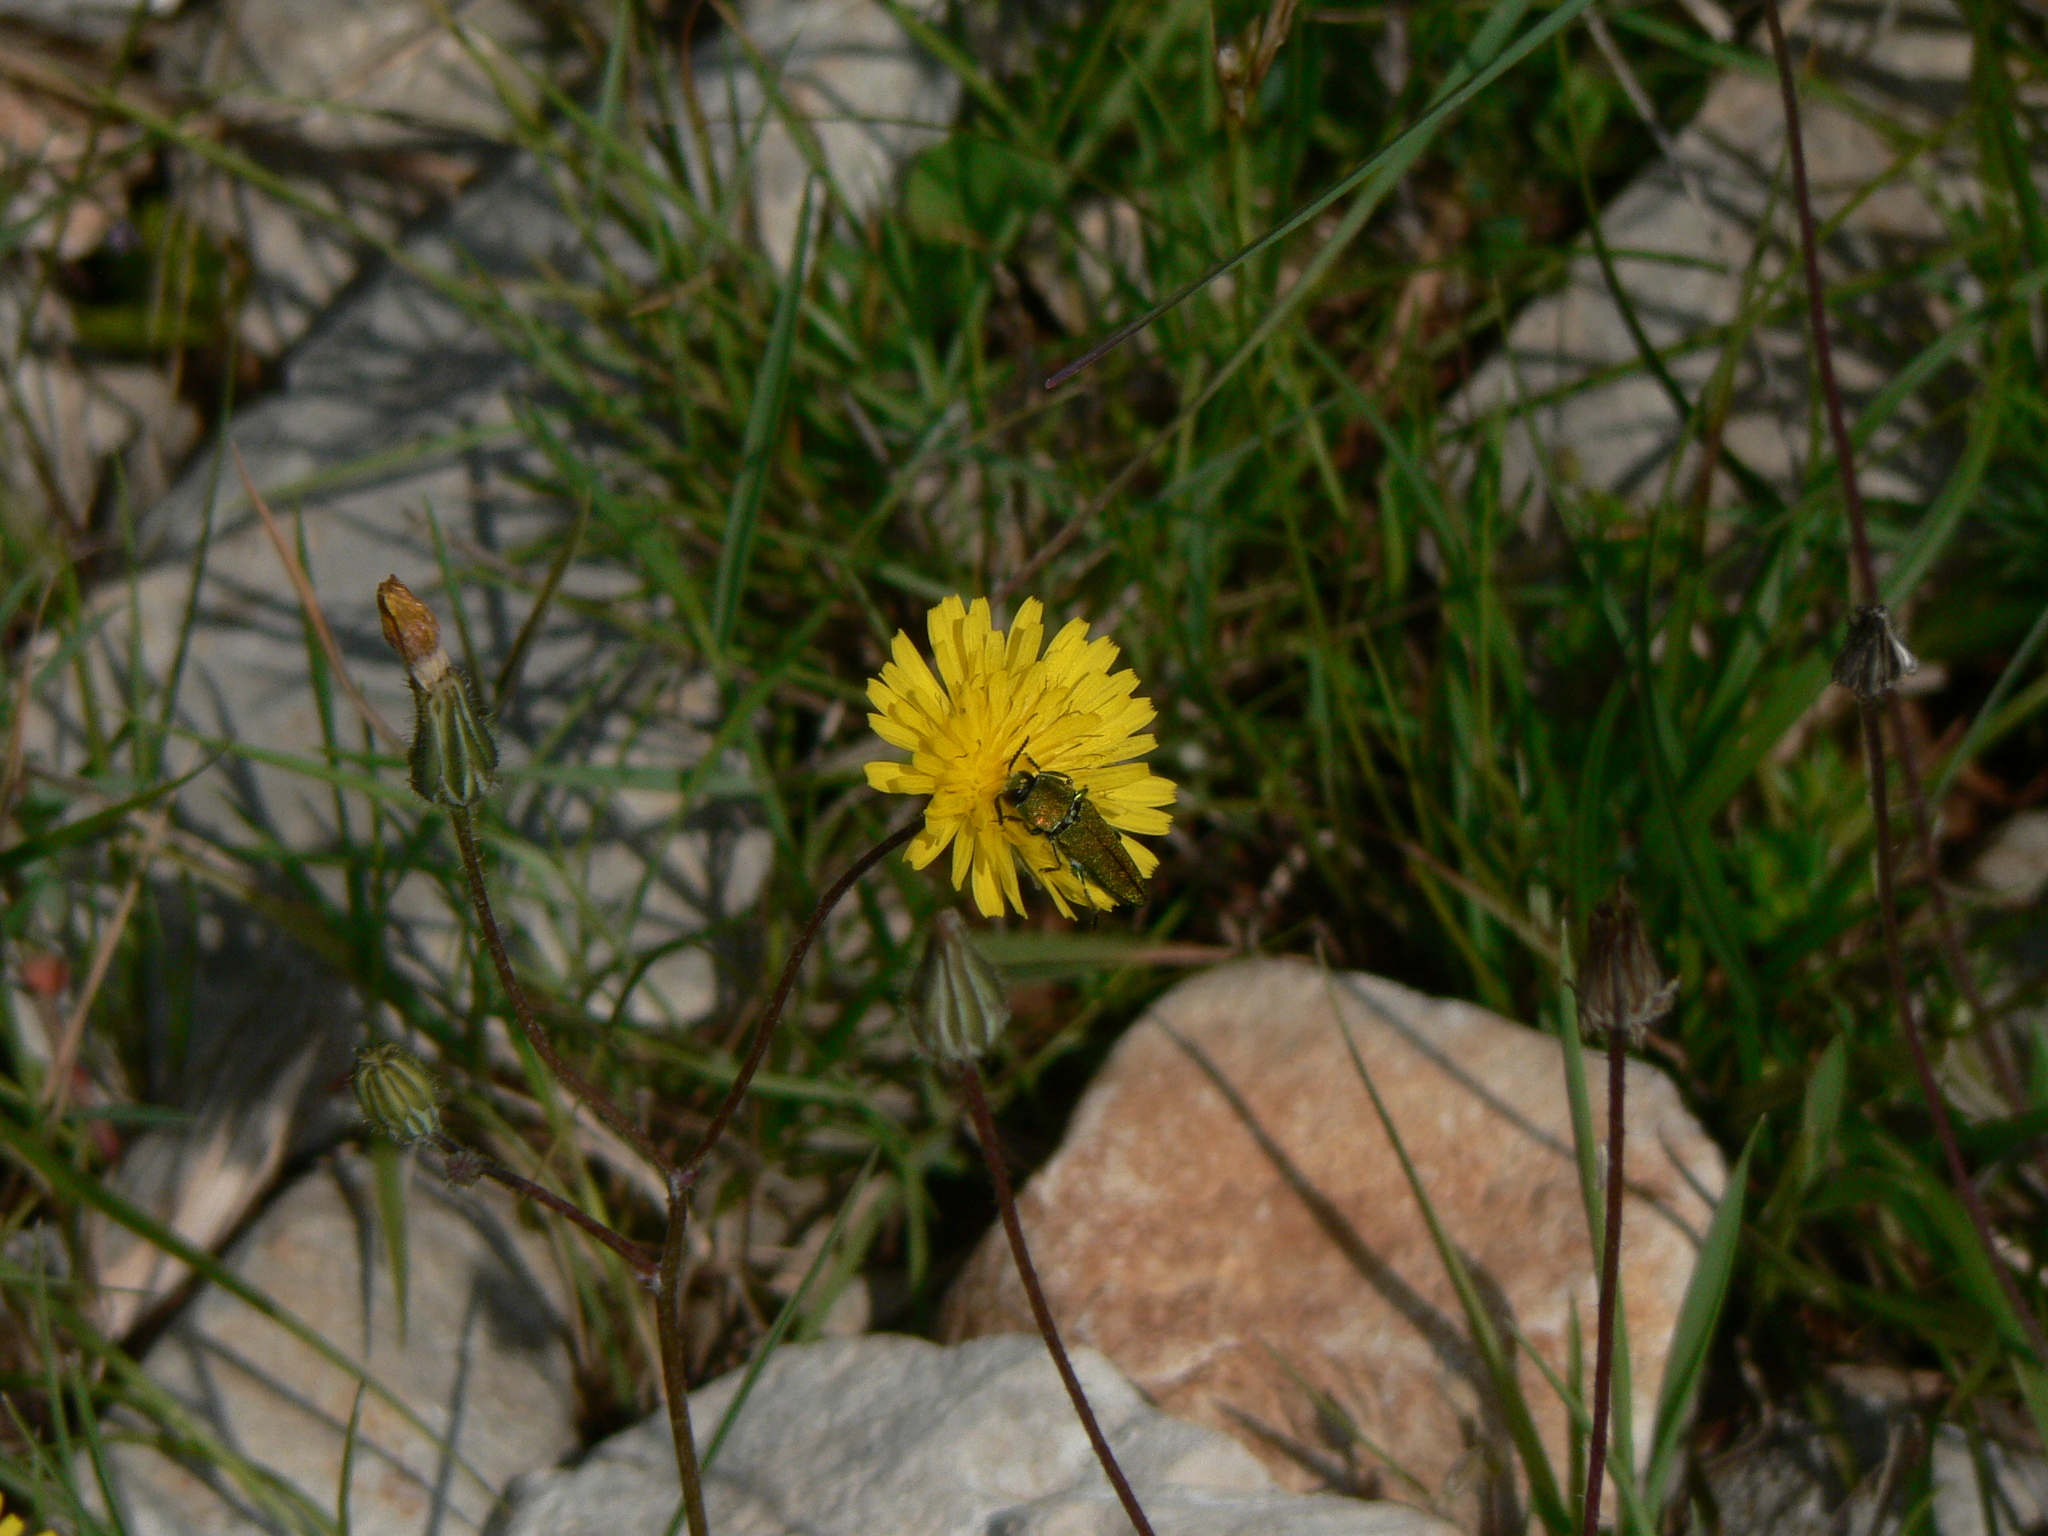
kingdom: Animalia
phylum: Arthropoda
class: Insecta
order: Coleoptera
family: Buprestidae
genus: Anthaxia
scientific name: Anthaxia hungarica
